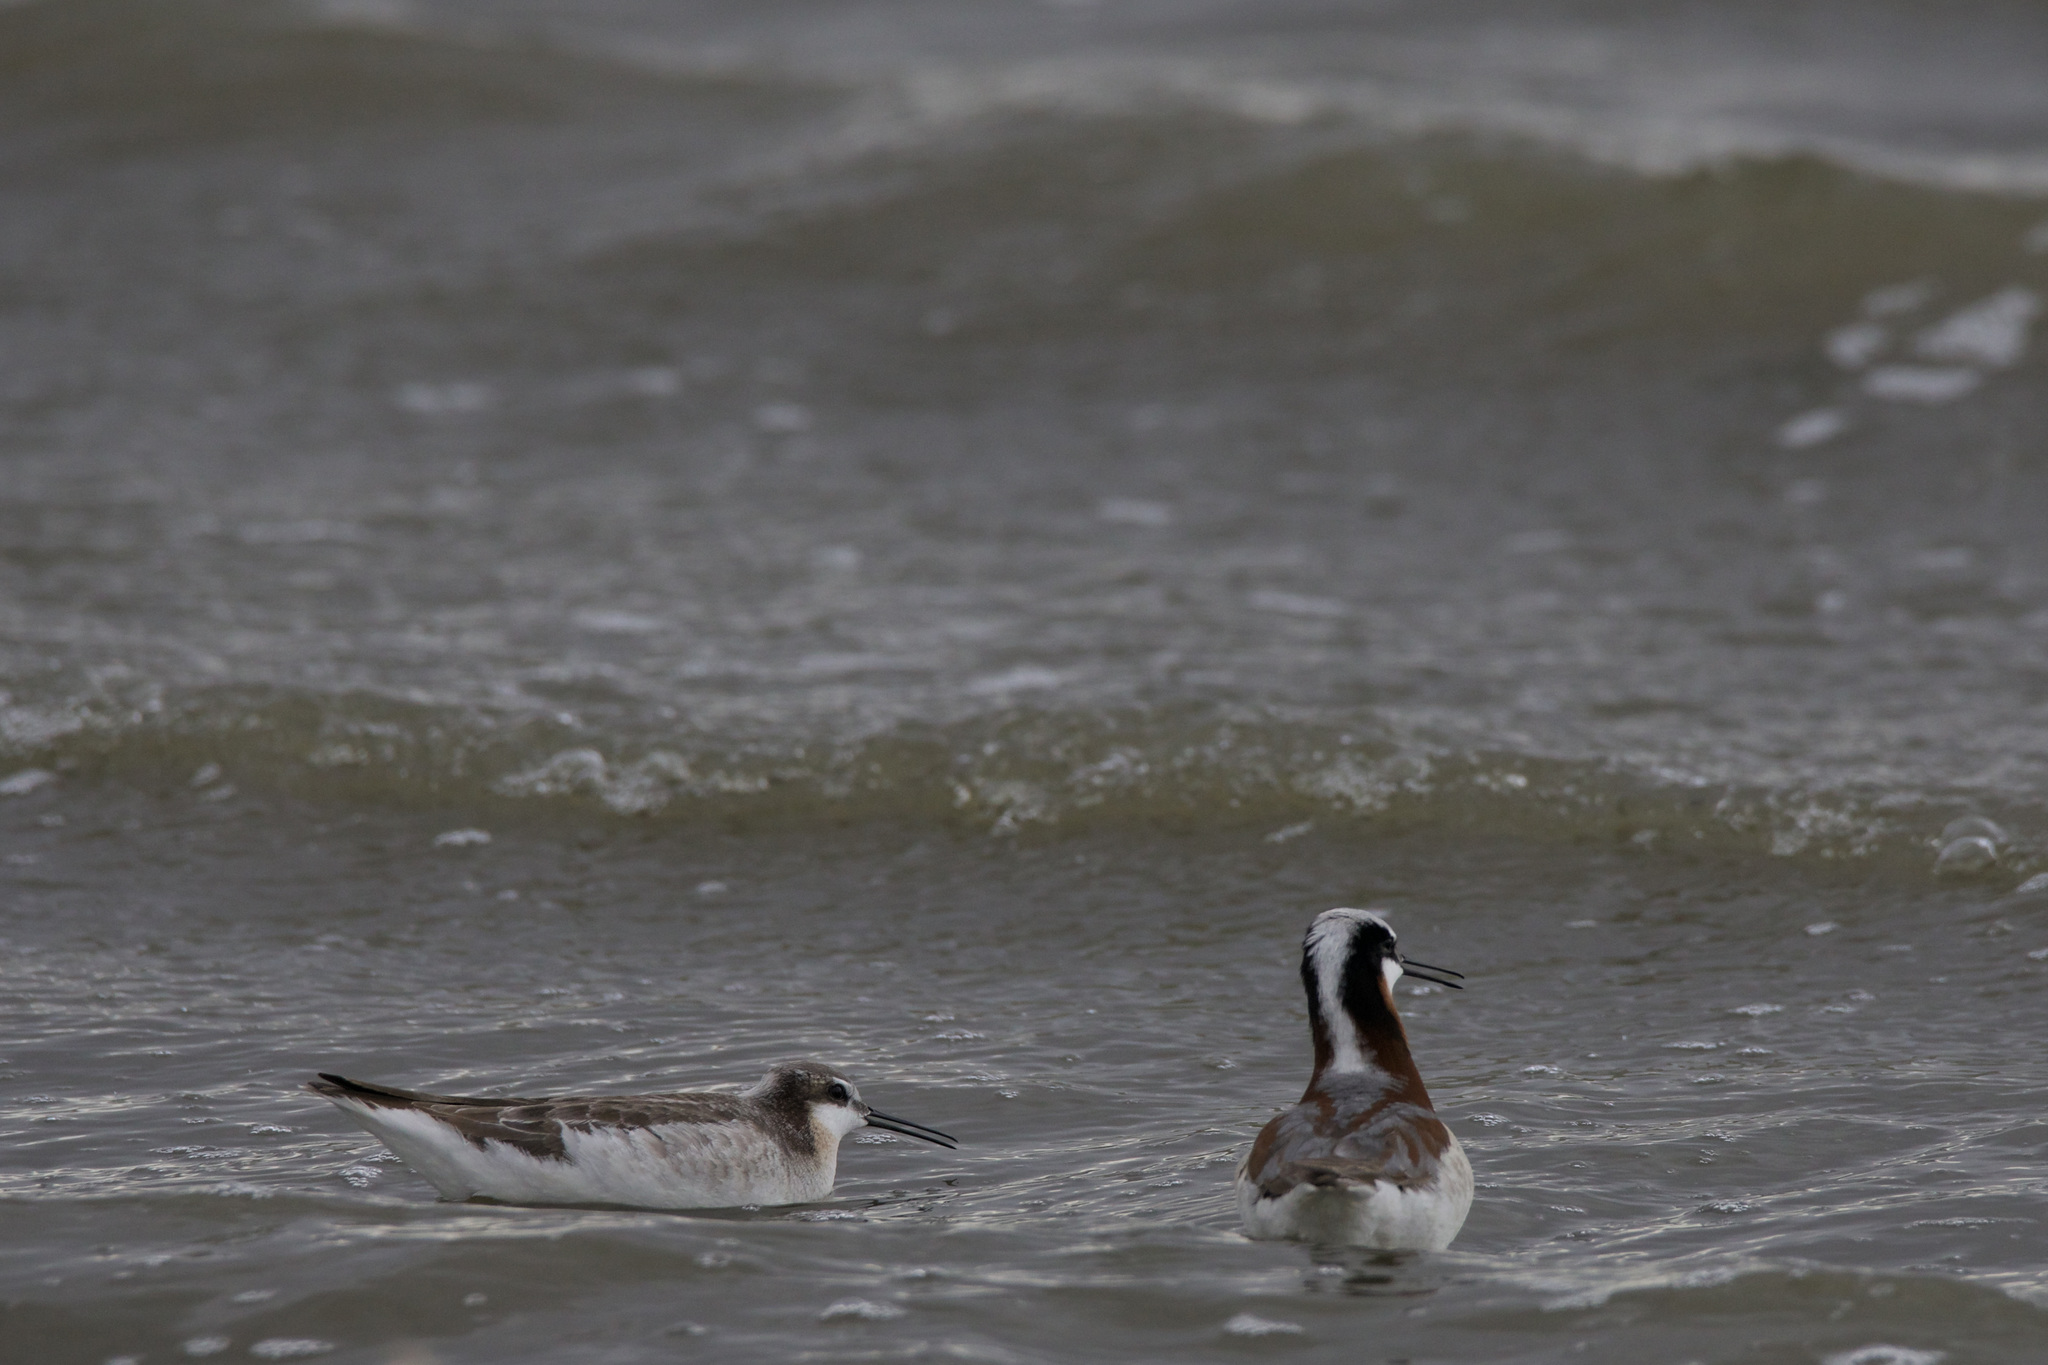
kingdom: Animalia
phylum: Chordata
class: Aves
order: Charadriiformes
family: Scolopacidae
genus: Phalaropus
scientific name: Phalaropus tricolor
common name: Wilson's phalarope
